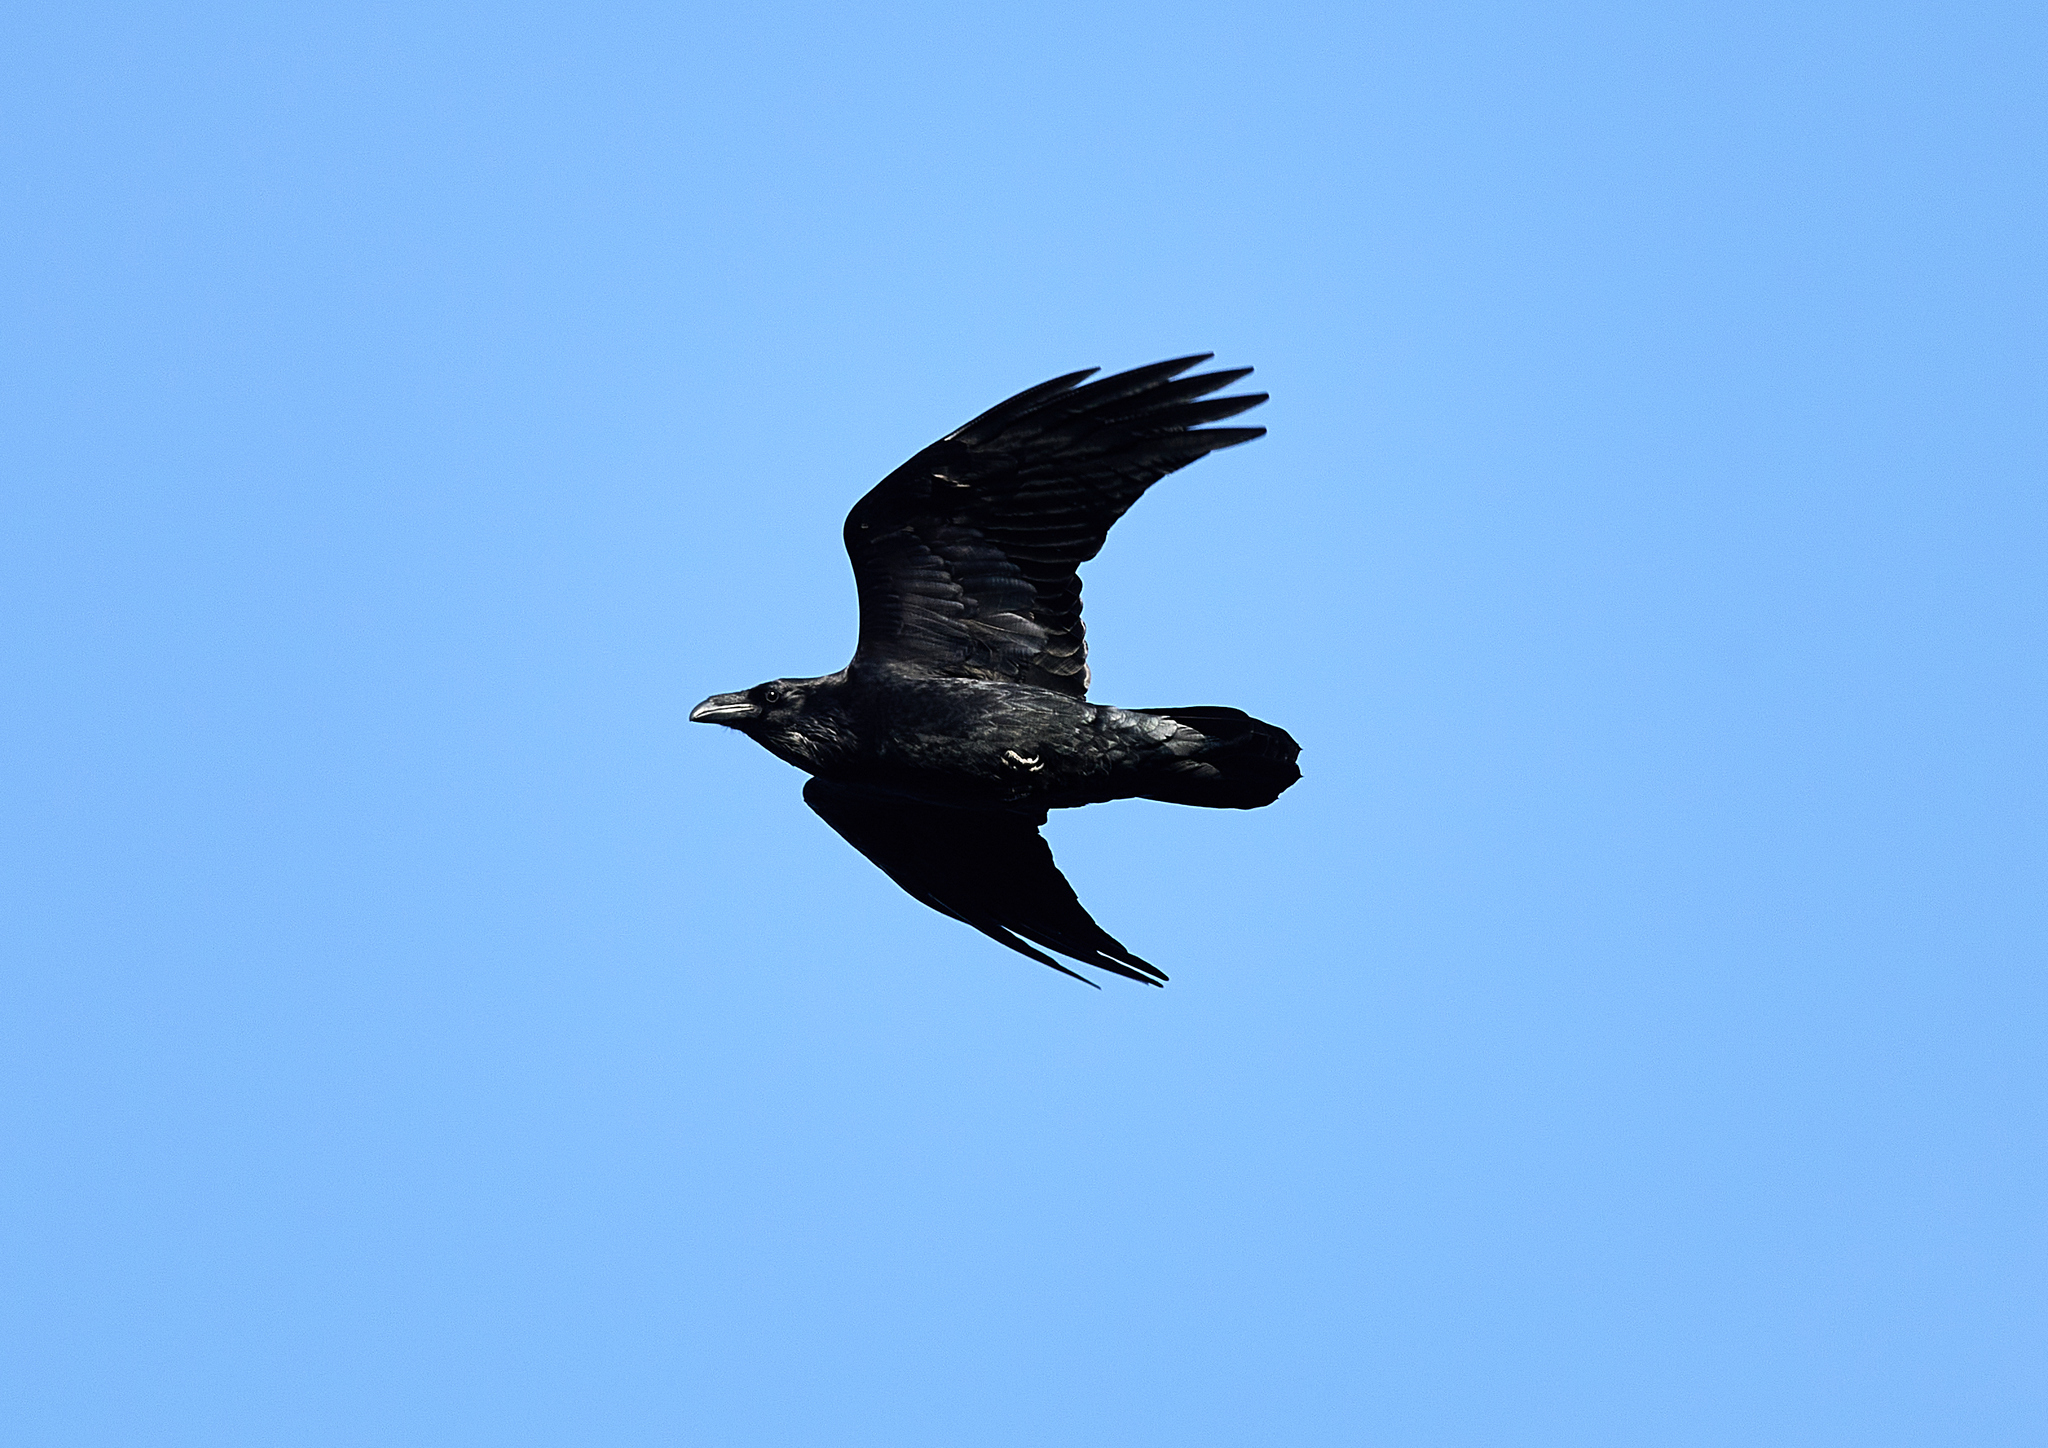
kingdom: Animalia
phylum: Chordata
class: Aves
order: Passeriformes
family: Corvidae
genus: Corvus
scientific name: Corvus corax
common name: Common raven
